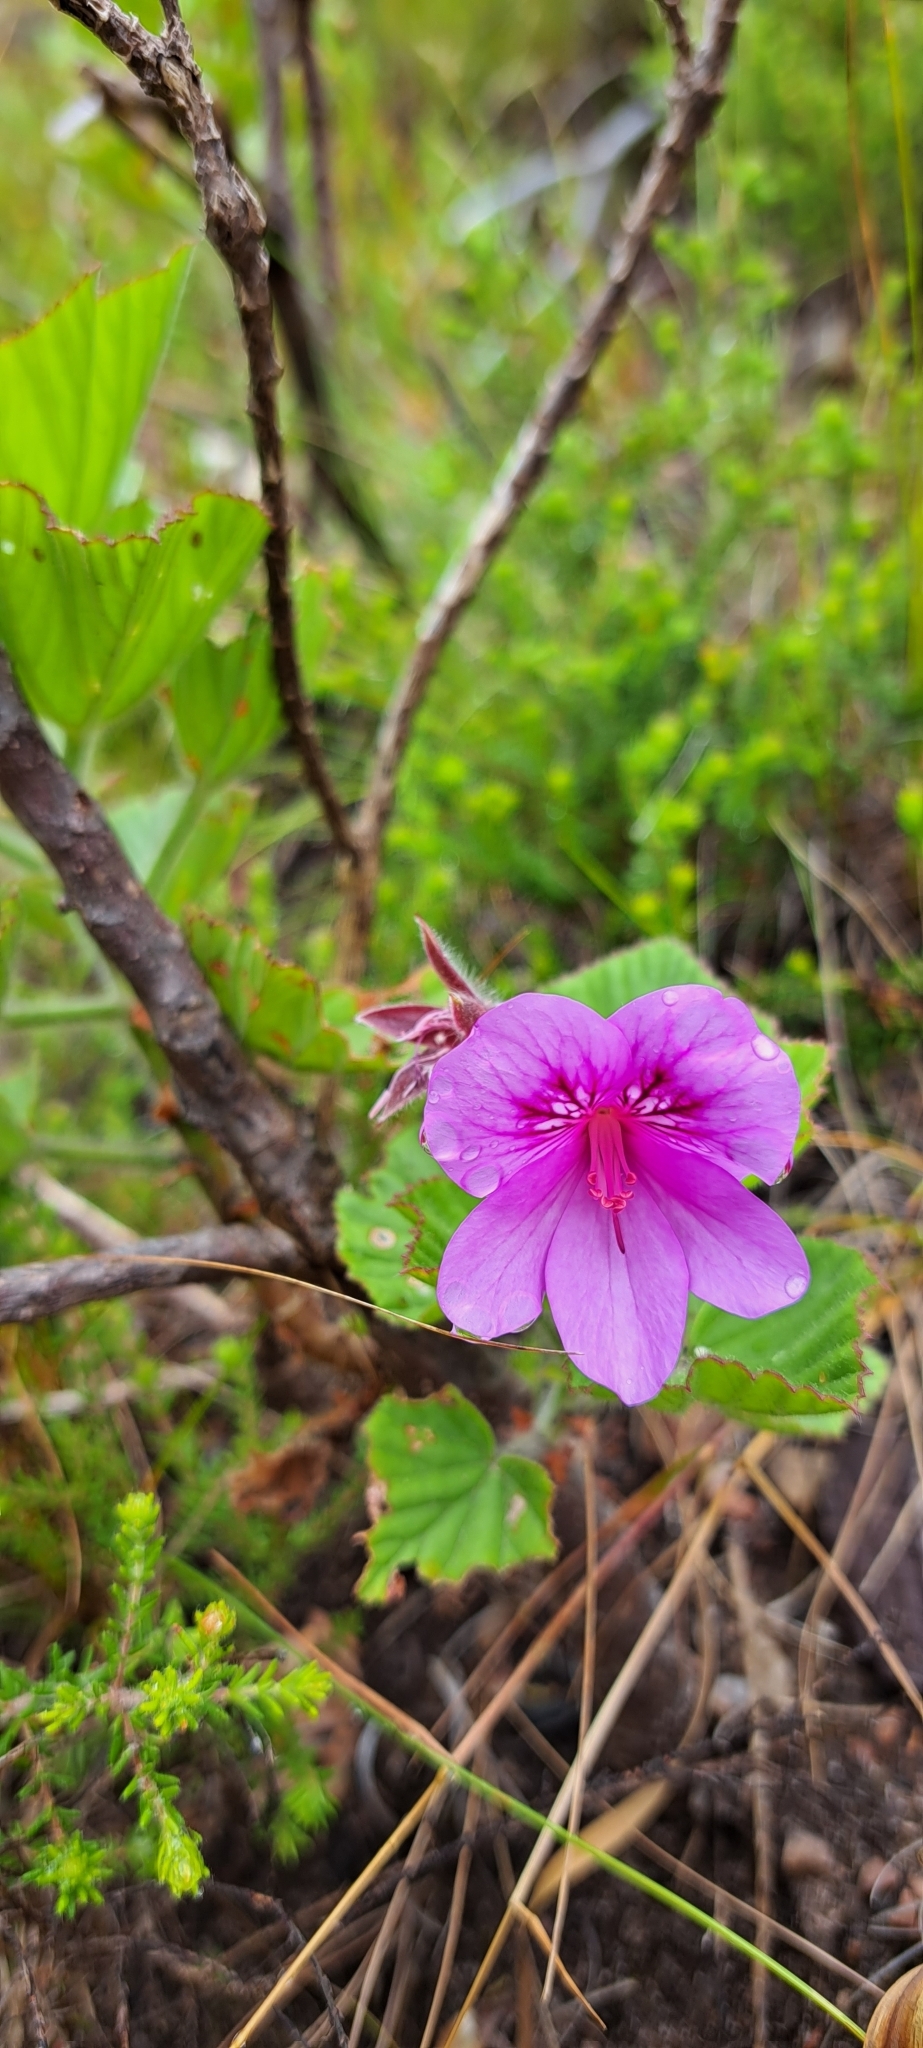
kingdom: Plantae
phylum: Tracheophyta
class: Magnoliopsida
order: Geraniales
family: Geraniaceae
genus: Pelargonium
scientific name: Pelargonium cucullatum
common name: Tree pelargonium
